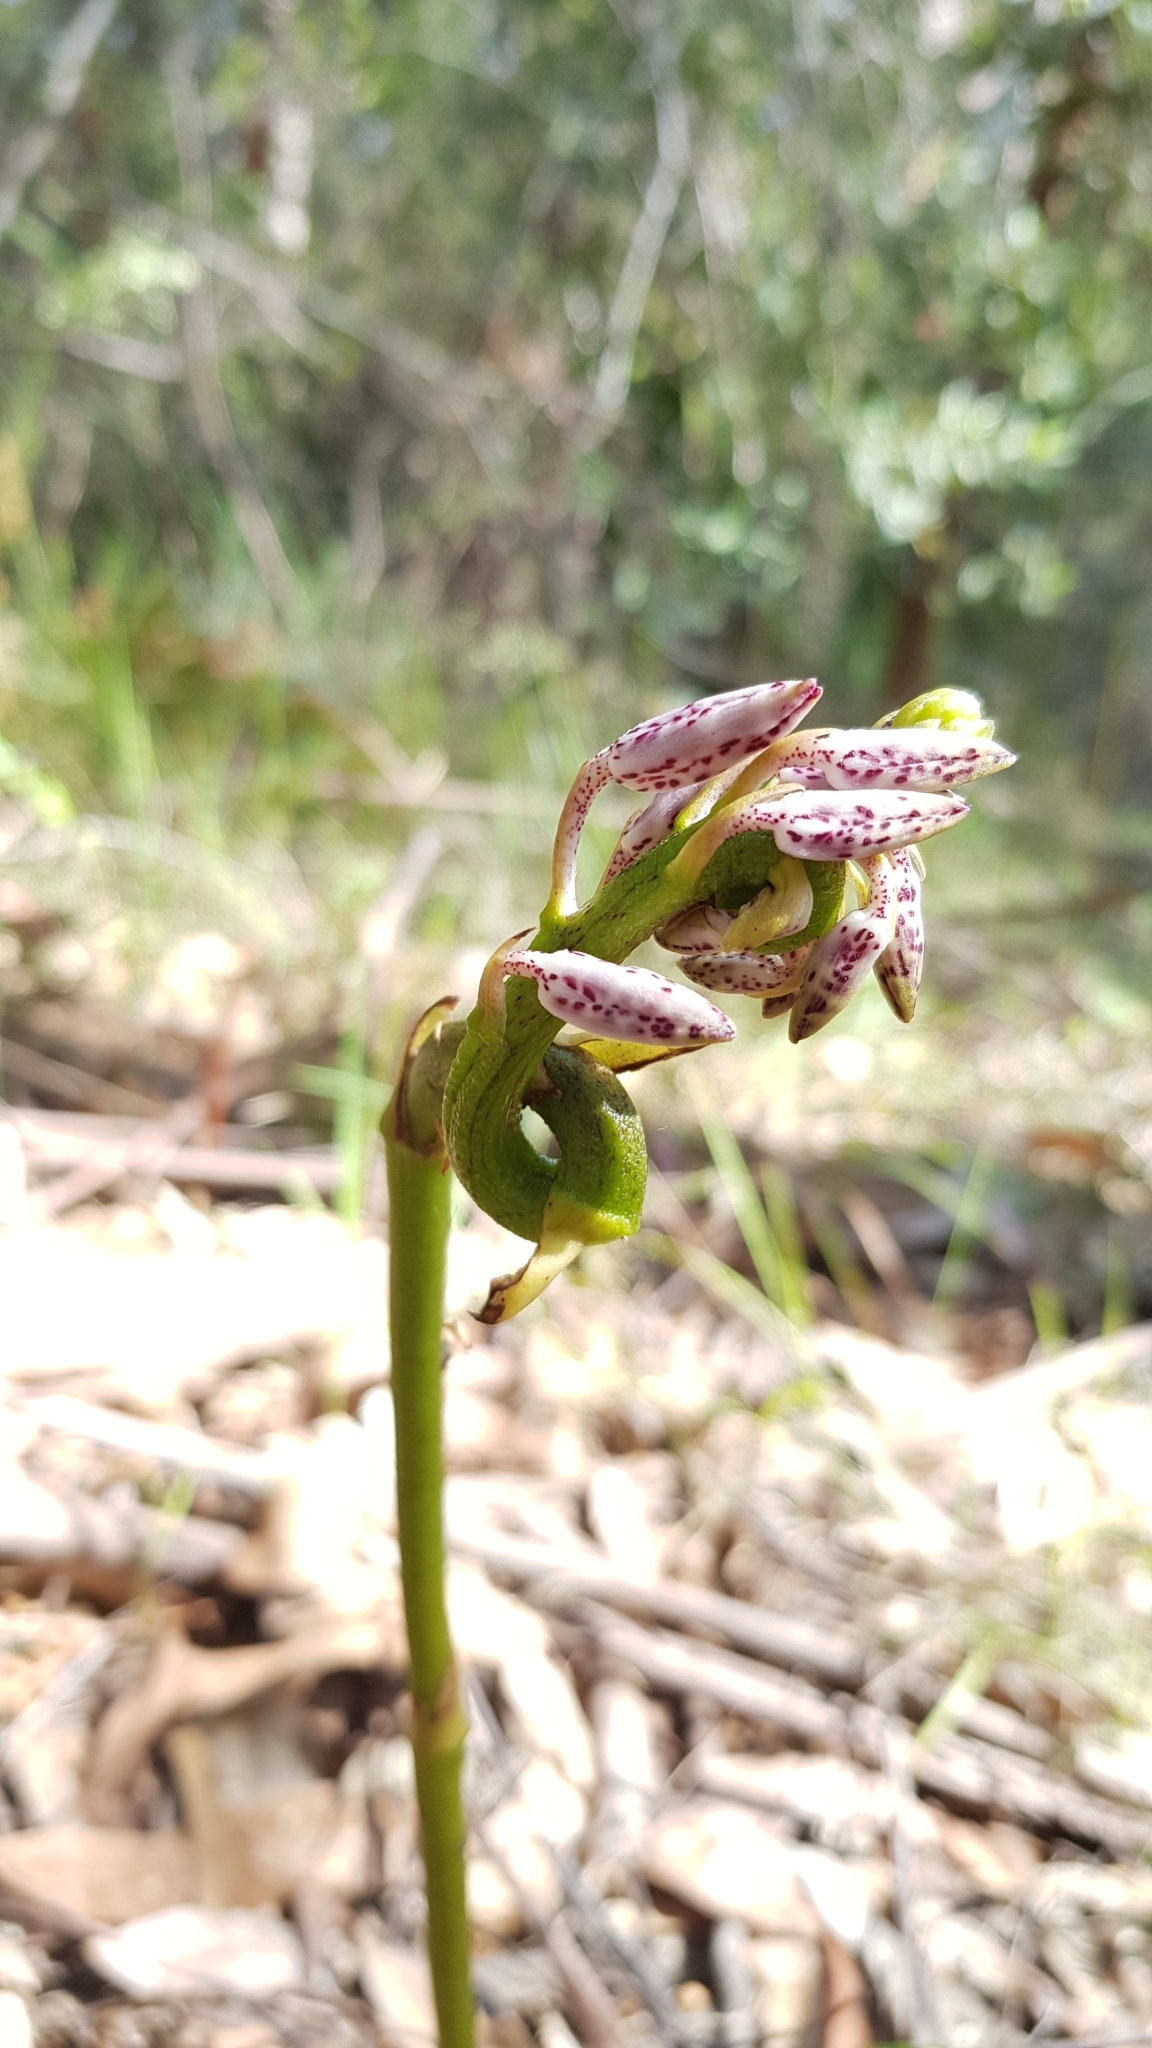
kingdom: Plantae
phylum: Tracheophyta
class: Liliopsida
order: Asparagales
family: Orchidaceae
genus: Dipodium
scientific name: Dipodium variegatum
